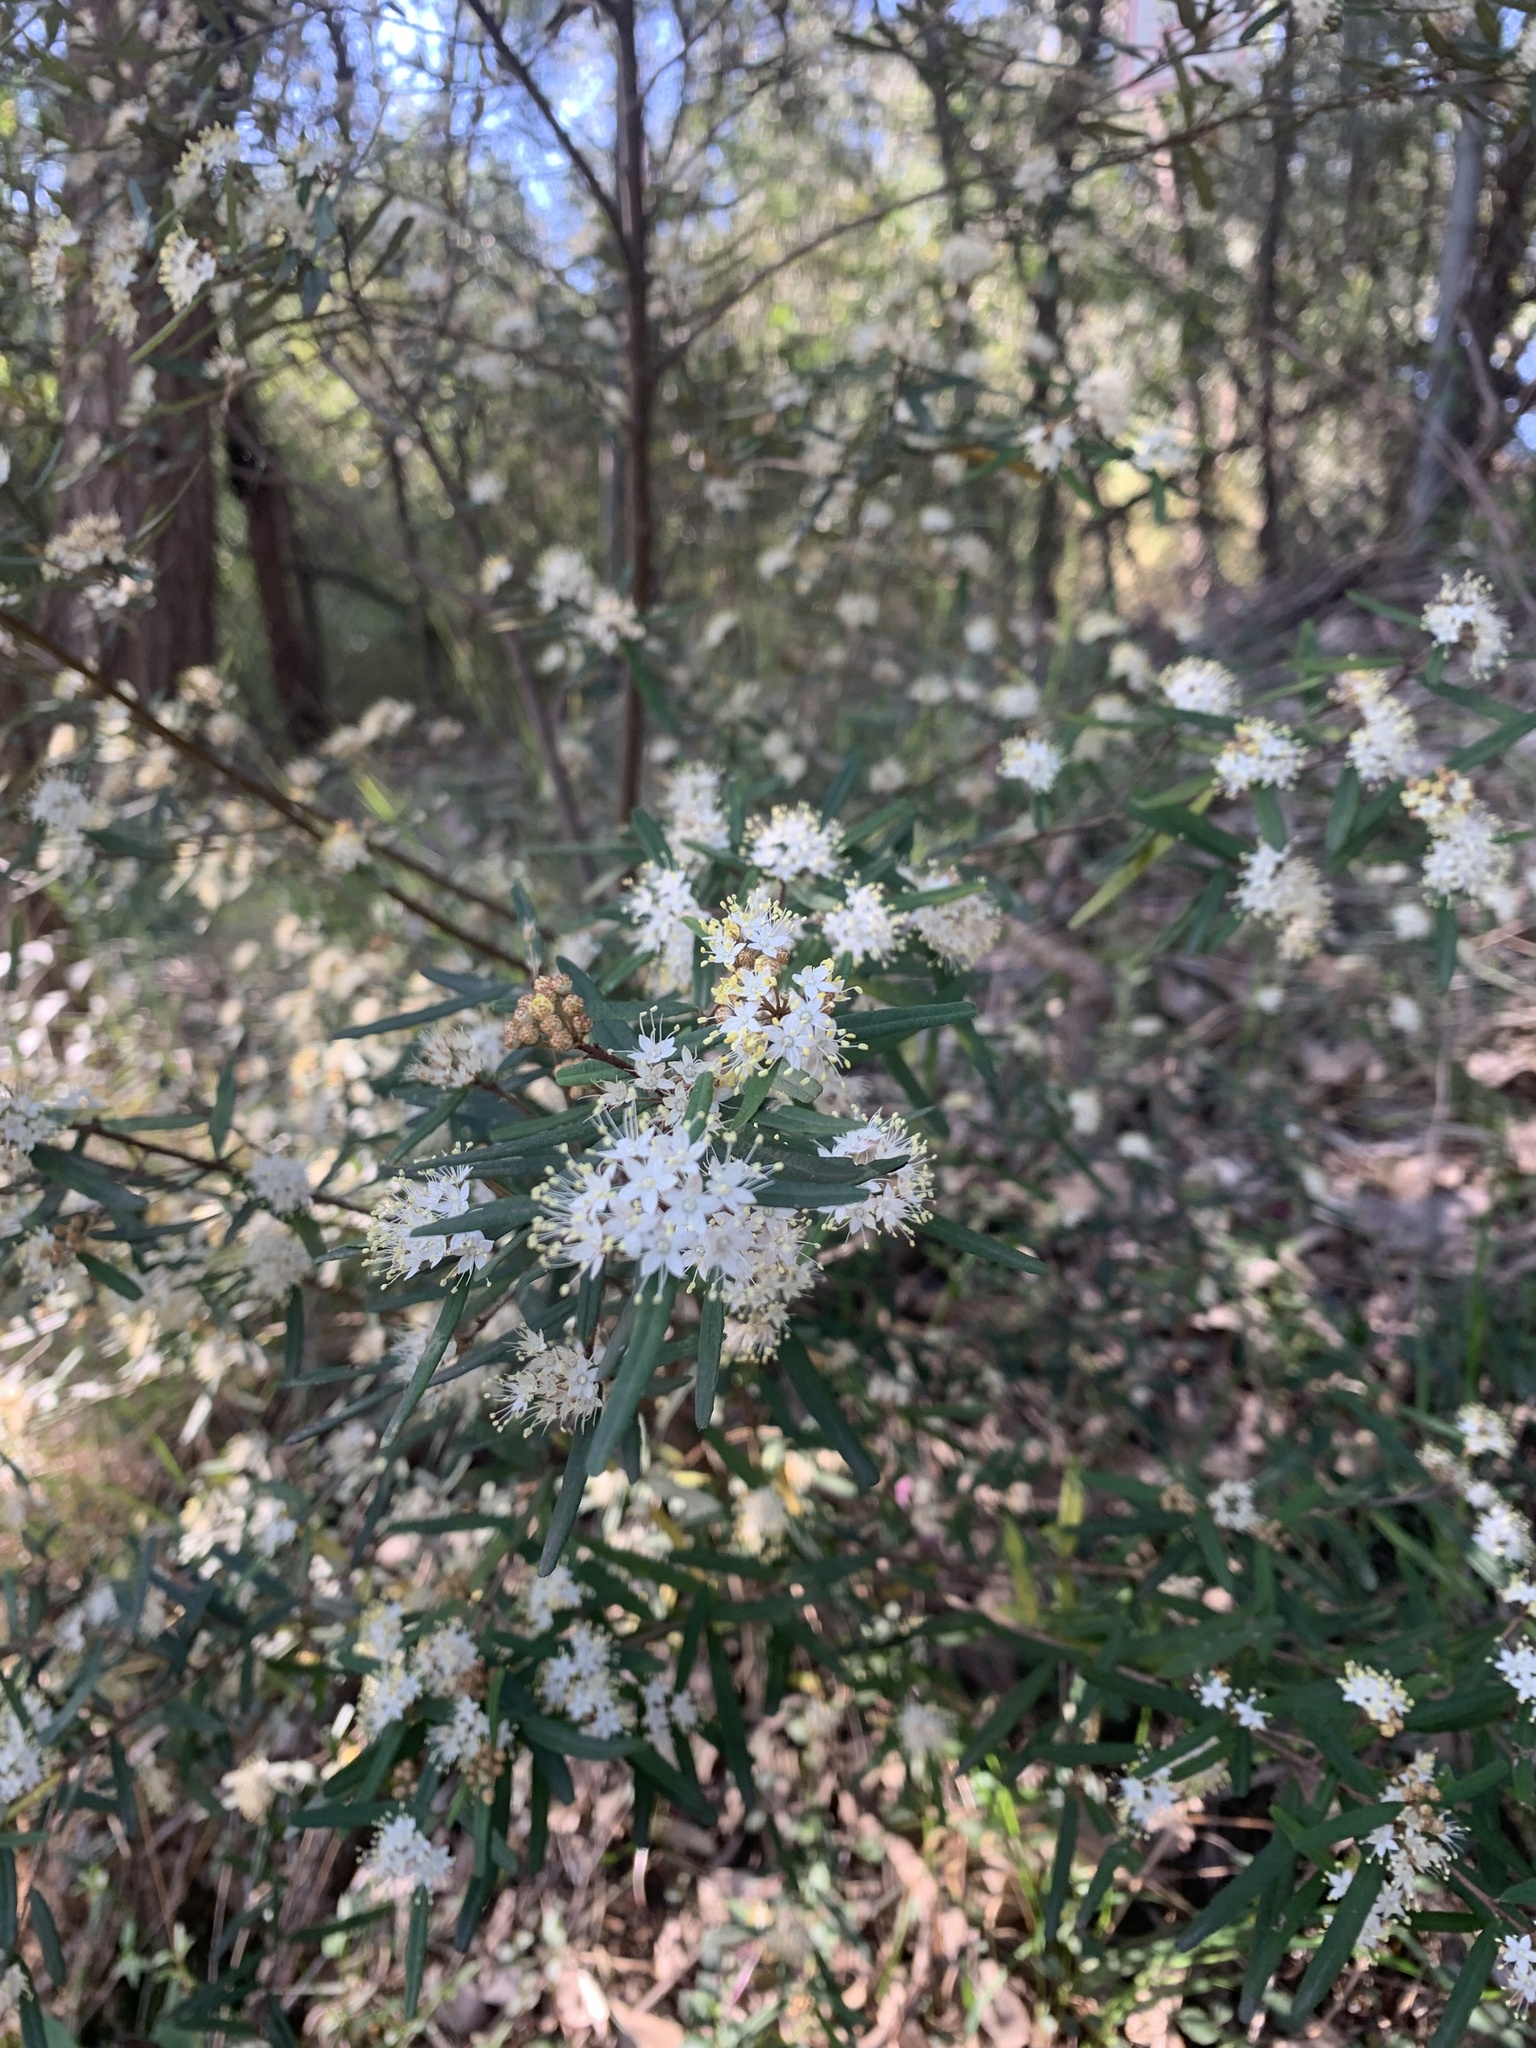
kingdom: Plantae
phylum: Tracheophyta
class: Magnoliopsida
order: Sapindales
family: Rutaceae
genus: Phebalium
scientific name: Phebalium squamulosum
